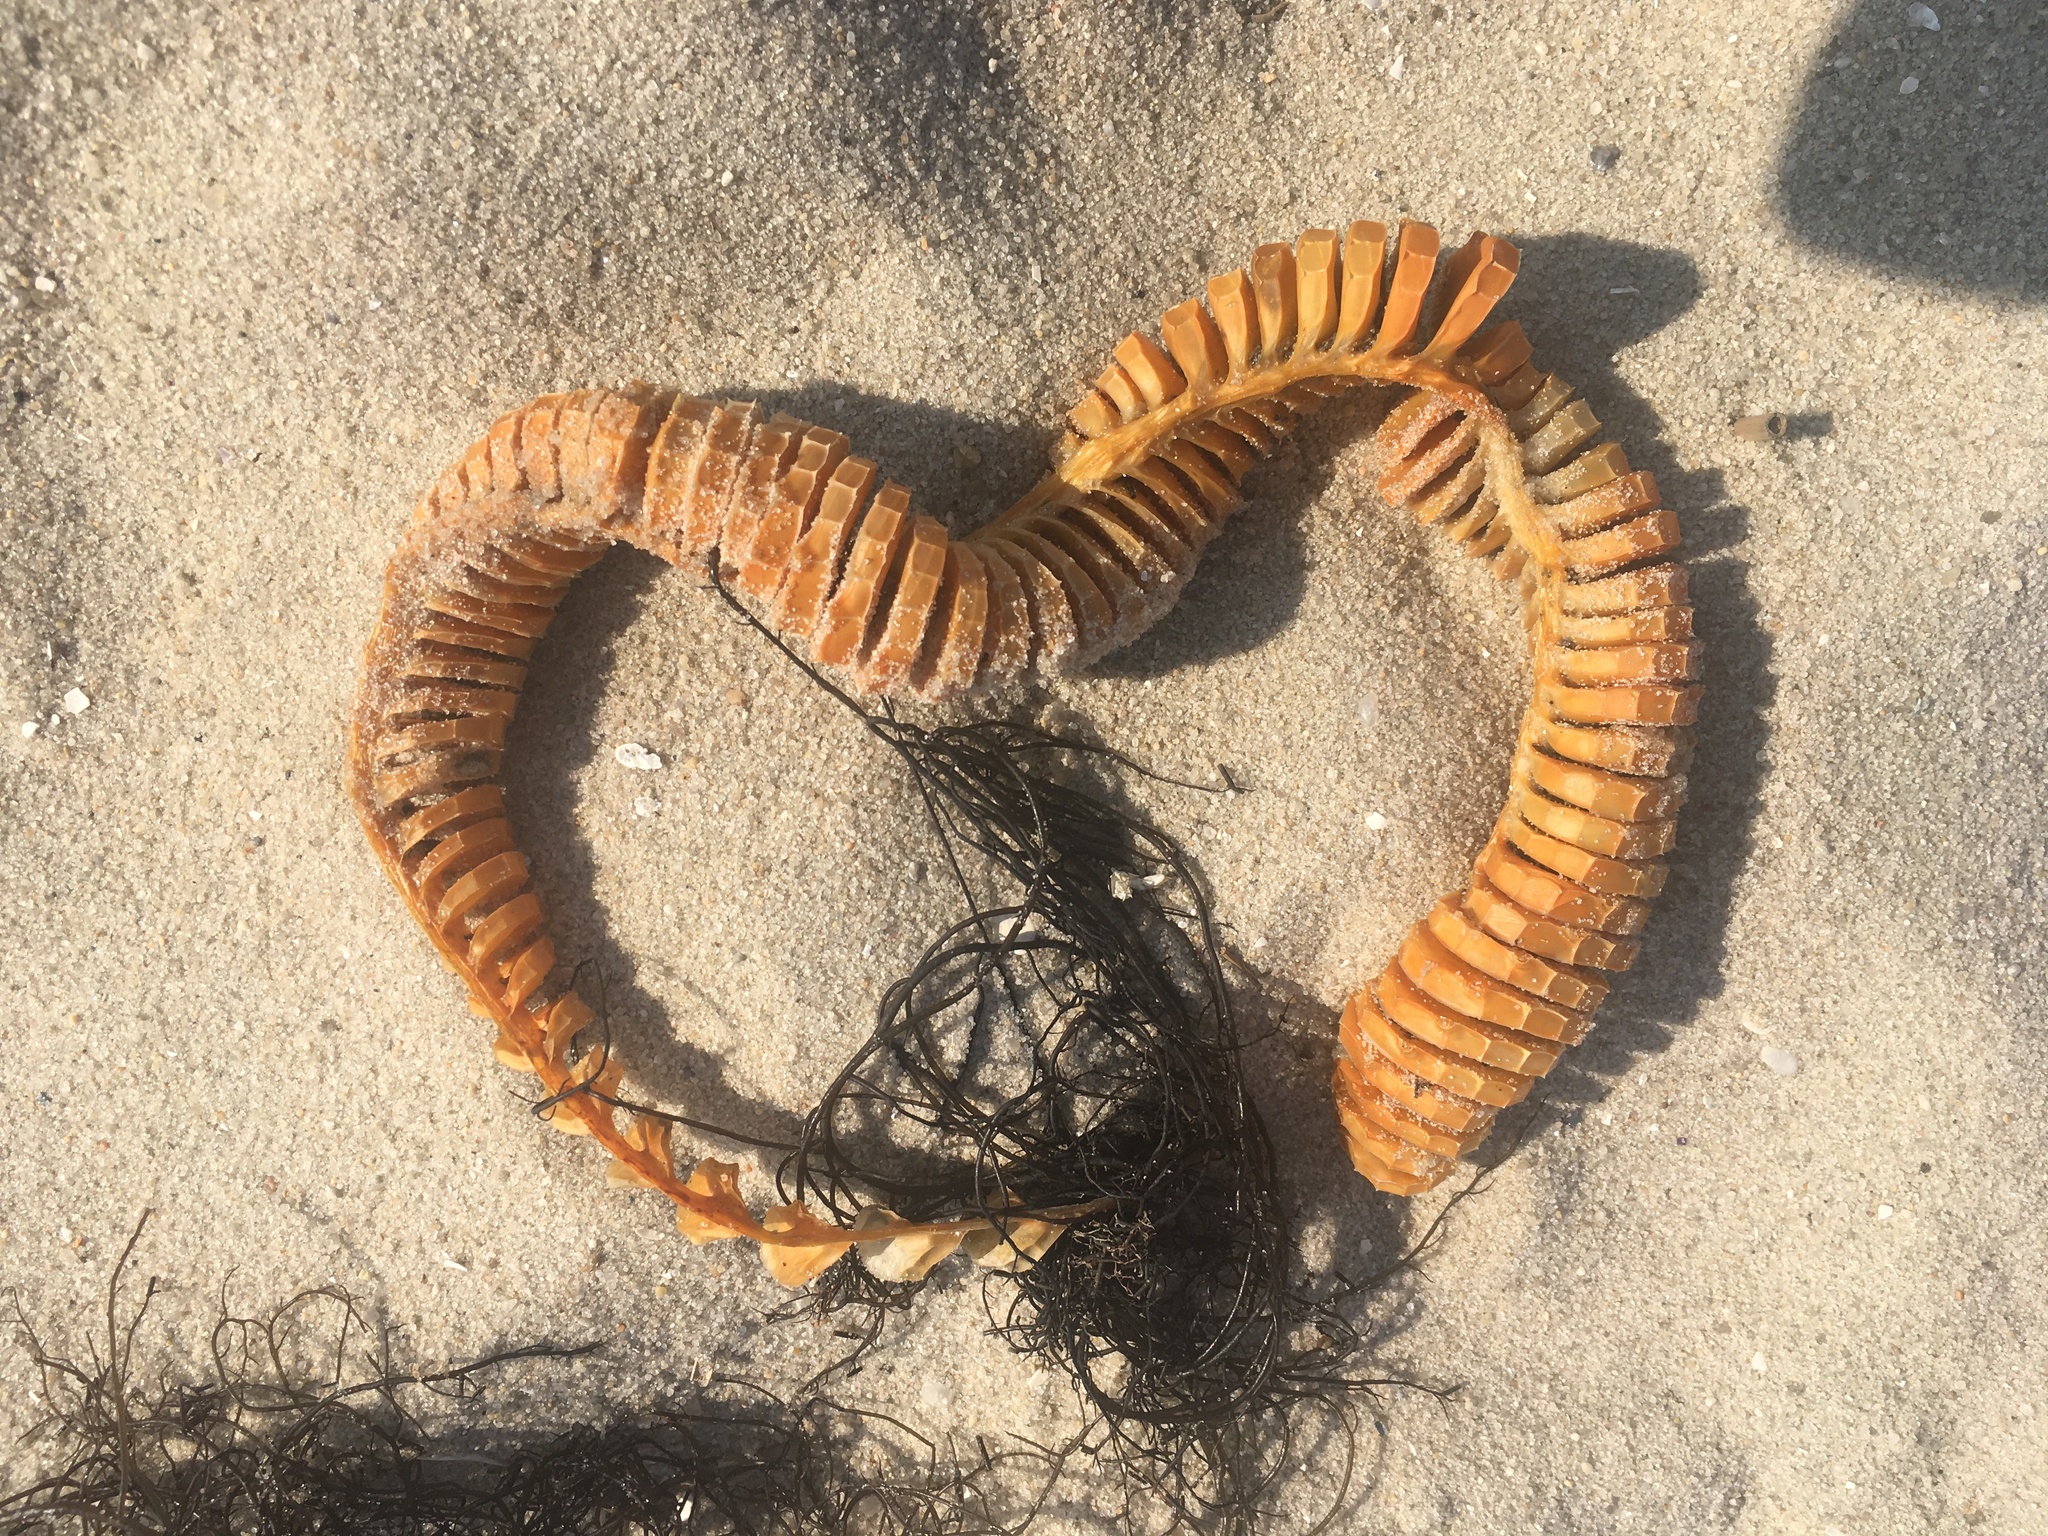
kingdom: Animalia
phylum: Mollusca
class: Gastropoda
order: Neogastropoda
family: Busyconidae
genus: Busycon
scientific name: Busycon carica
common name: Knobbed whelk
